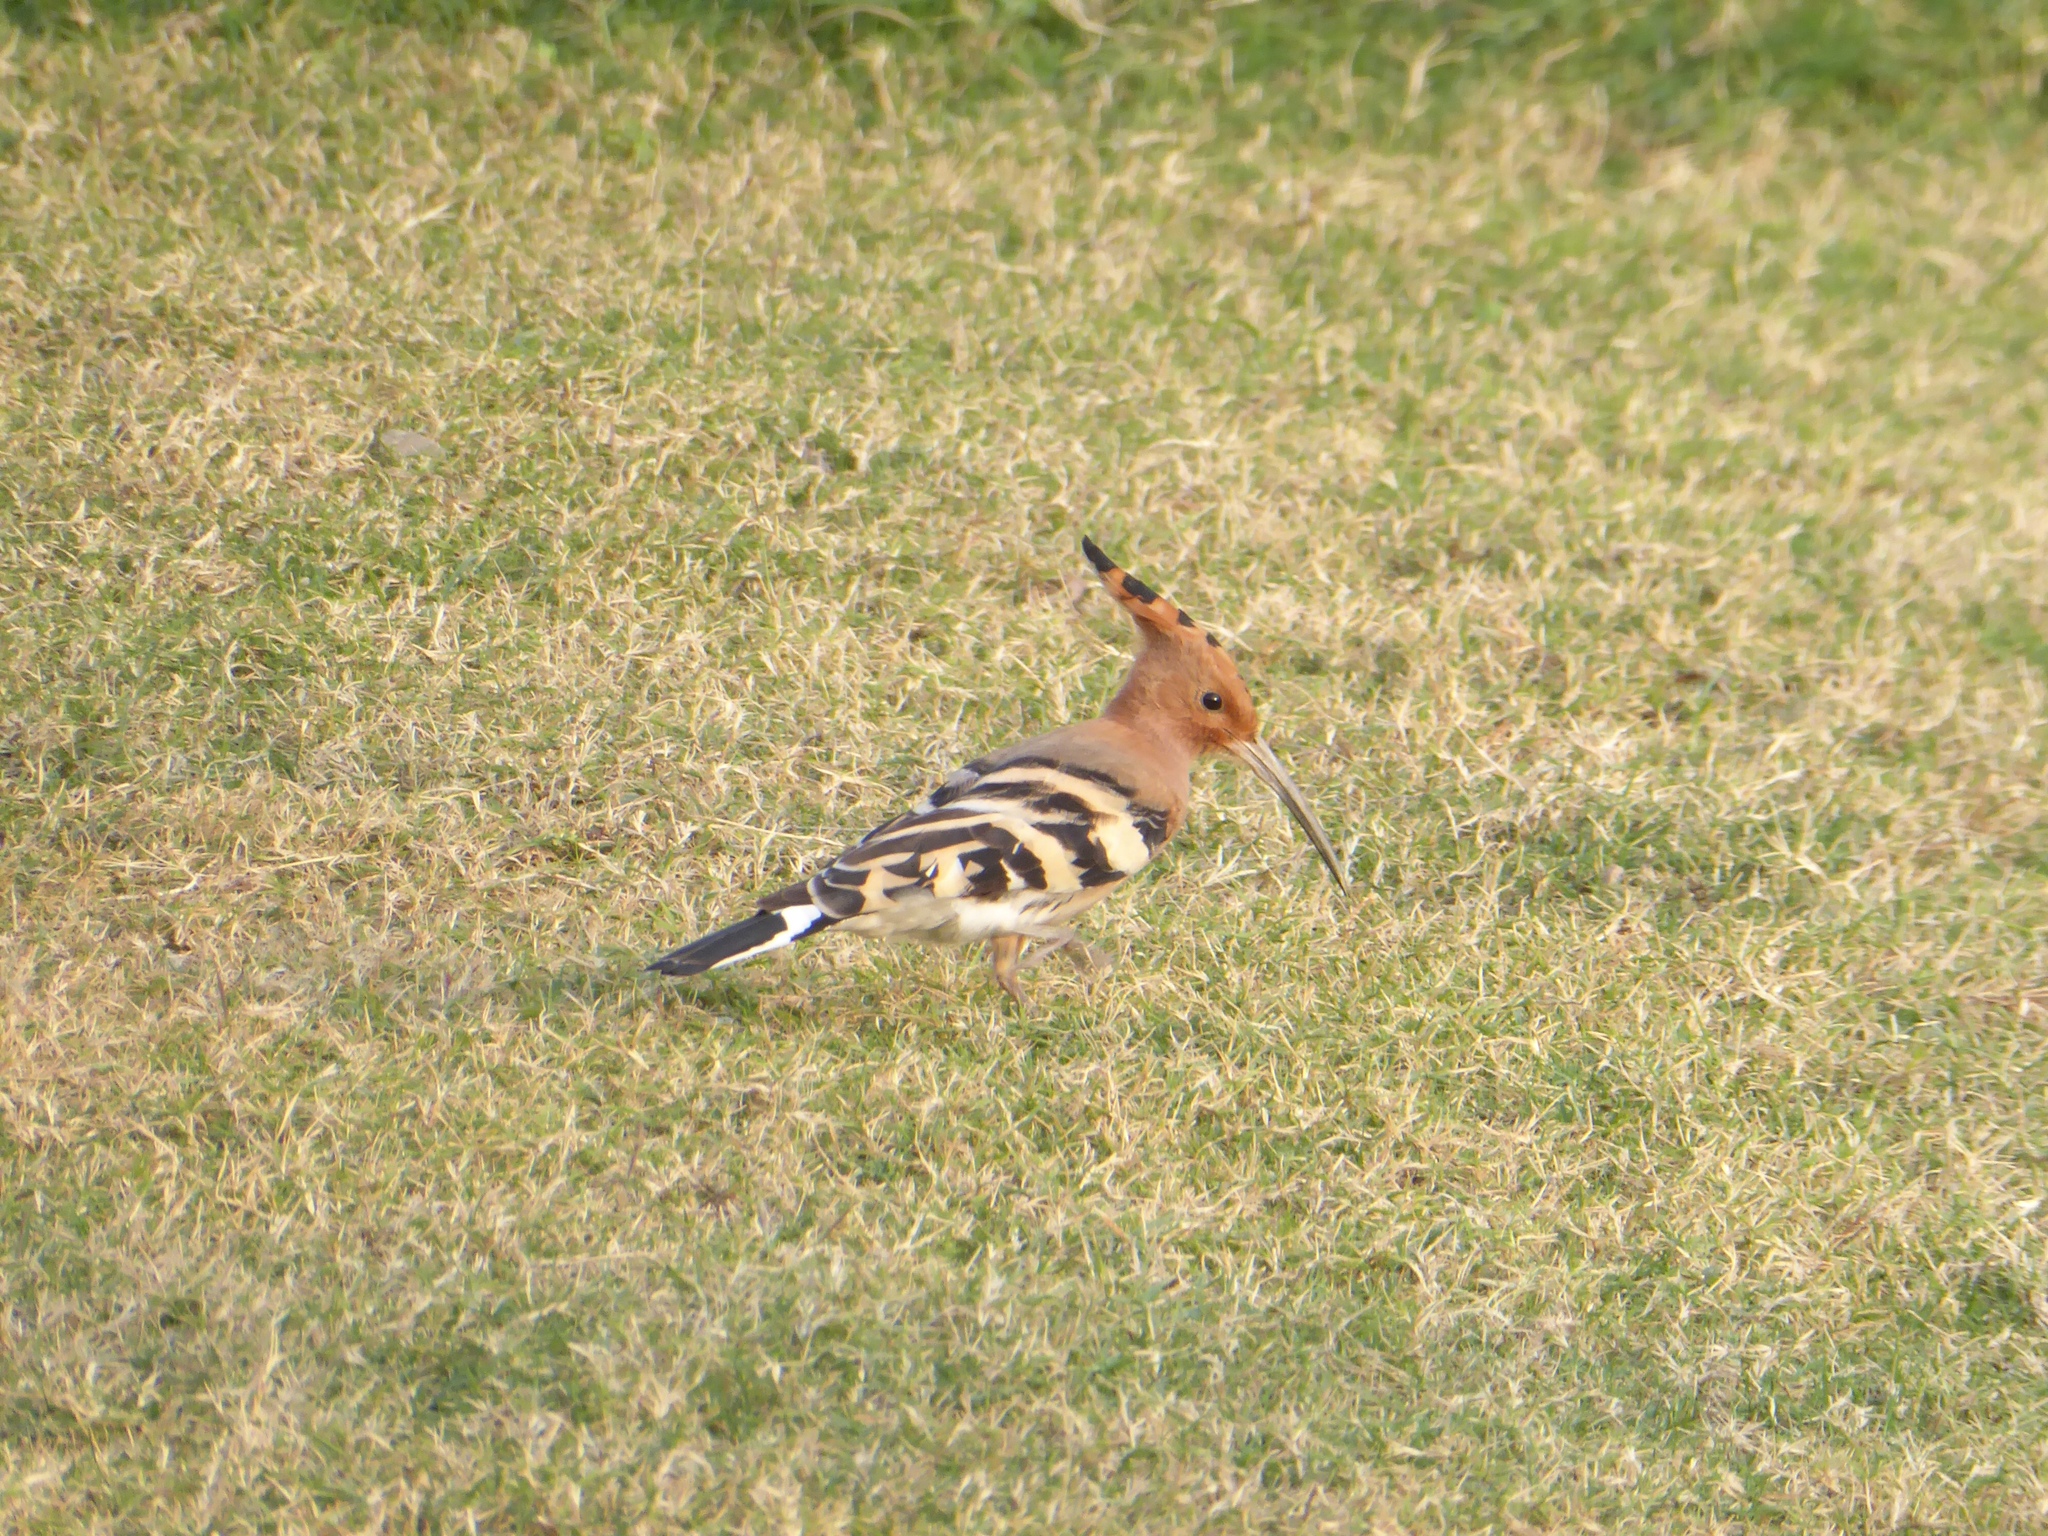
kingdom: Animalia
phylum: Chordata
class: Aves
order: Bucerotiformes
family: Upupidae
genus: Upupa
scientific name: Upupa epops
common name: Eurasian hoopoe
